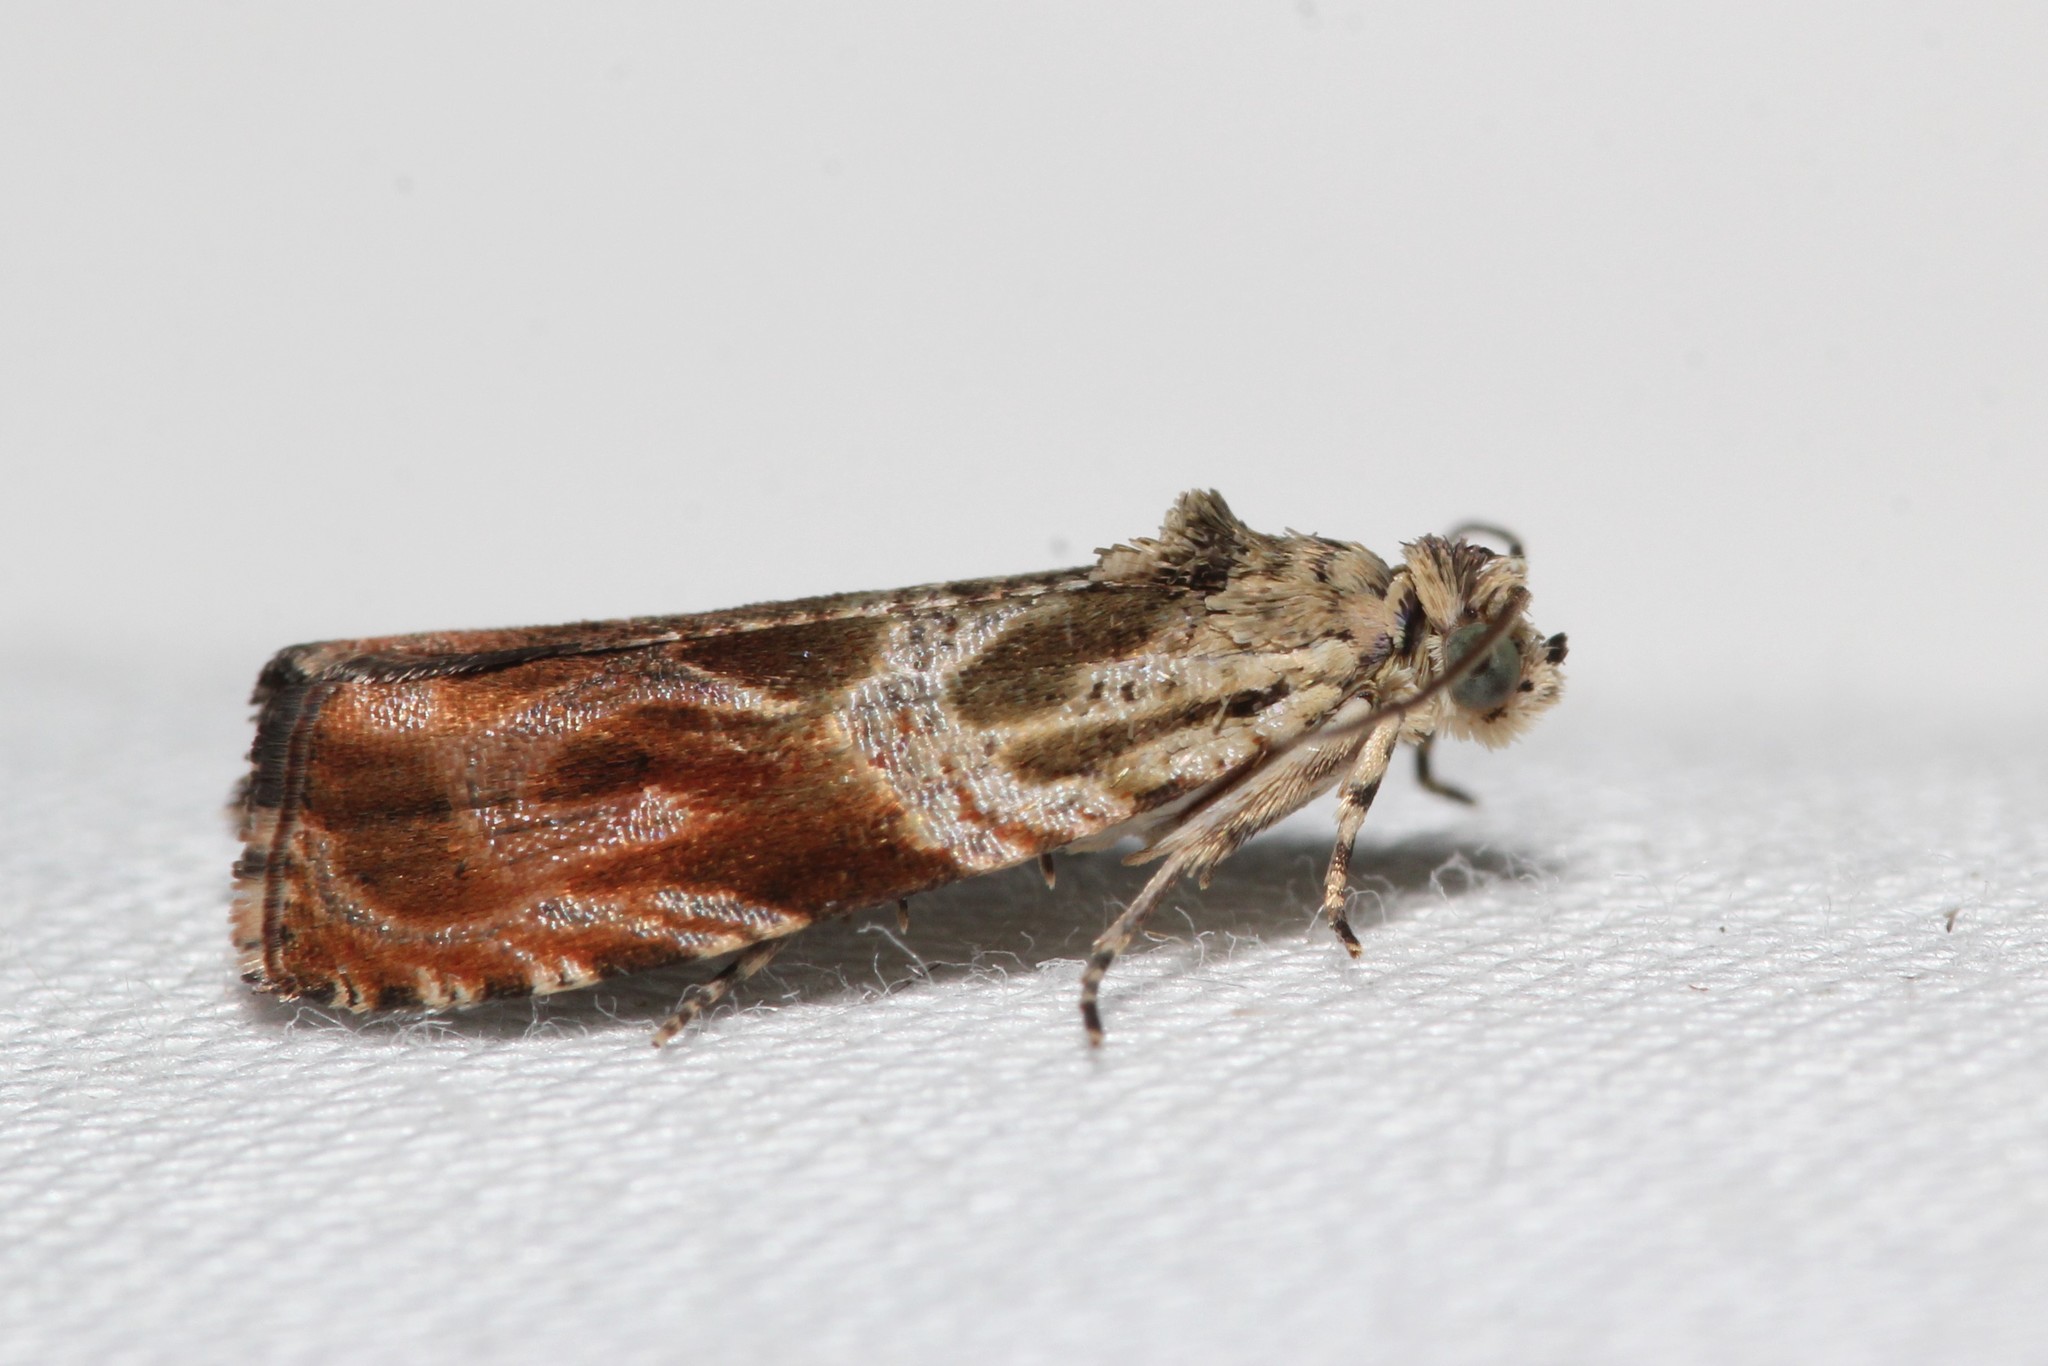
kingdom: Animalia
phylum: Arthropoda
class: Insecta
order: Lepidoptera
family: Tortricidae
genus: Olethreutes
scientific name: Olethreutes fagigemmeana
